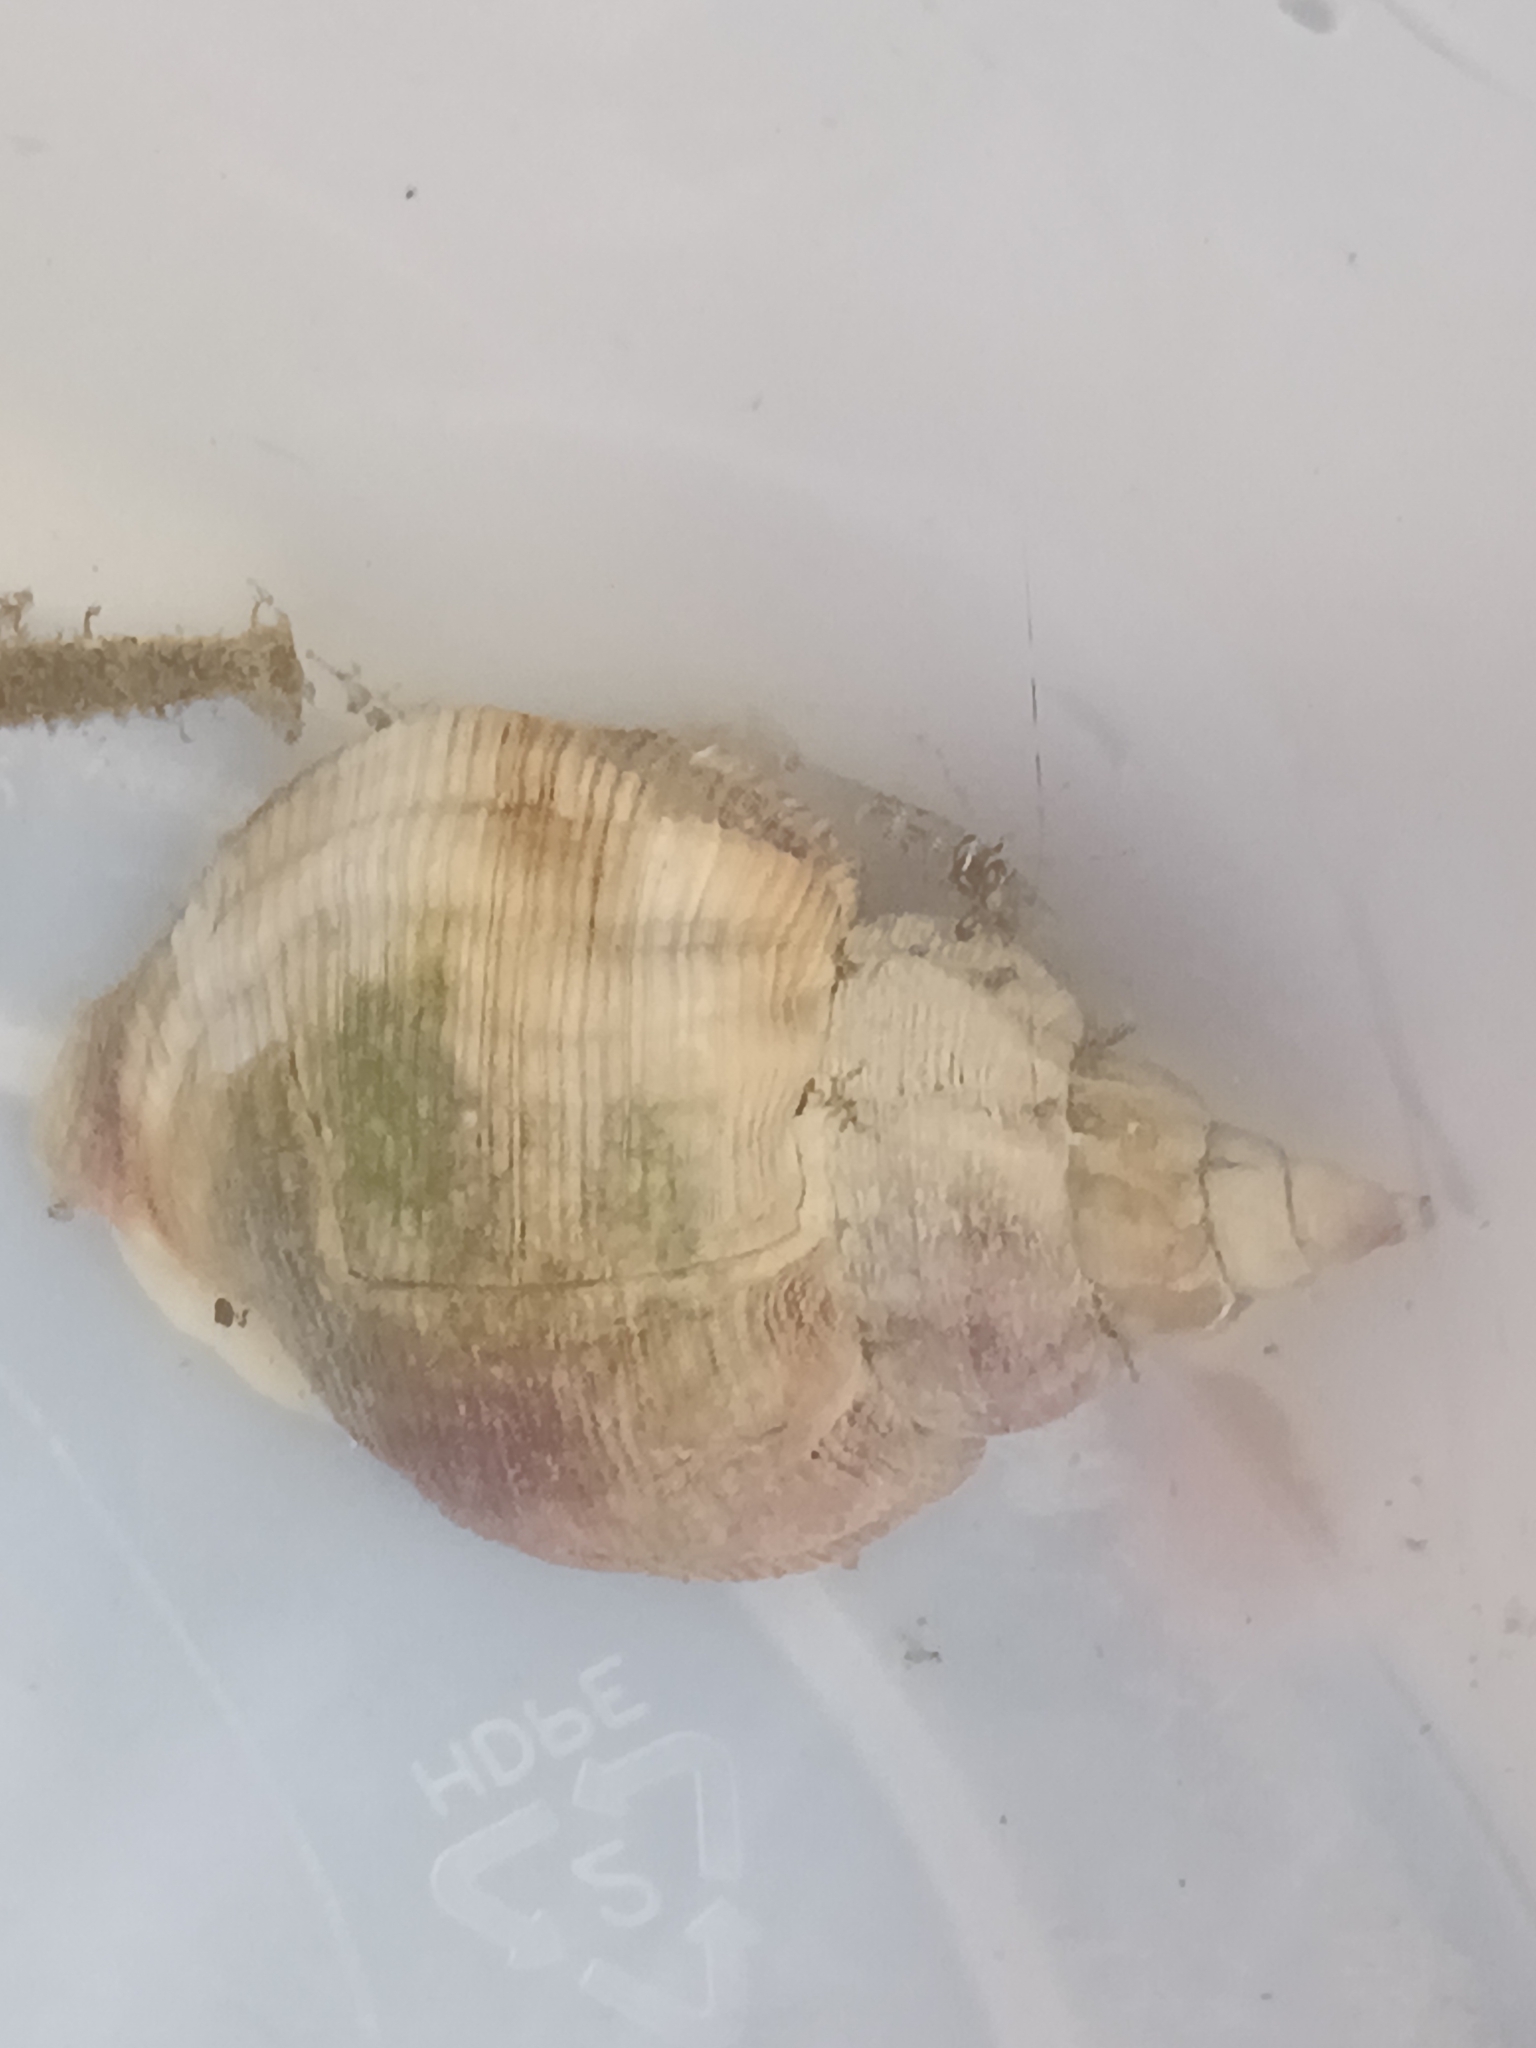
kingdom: Animalia
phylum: Mollusca
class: Gastropoda
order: Neogastropoda
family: Buccinidae
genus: Buccinum
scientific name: Buccinum undatum
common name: Common whelk
